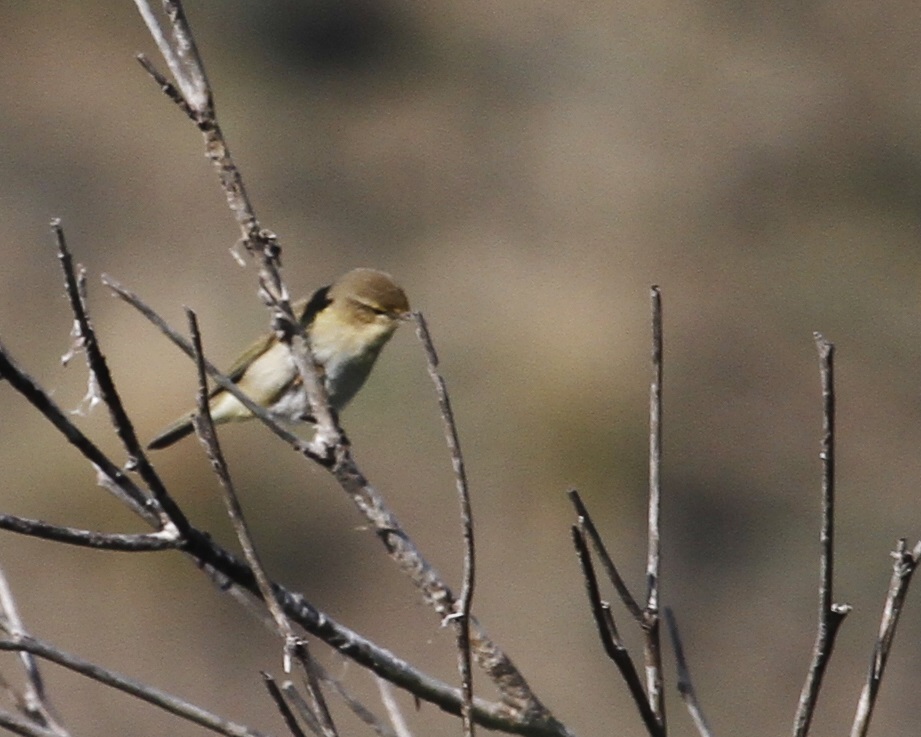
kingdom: Animalia
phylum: Chordata
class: Aves
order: Passeriformes
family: Phylloscopidae
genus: Phylloscopus
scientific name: Phylloscopus collybita
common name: Common chiffchaff
